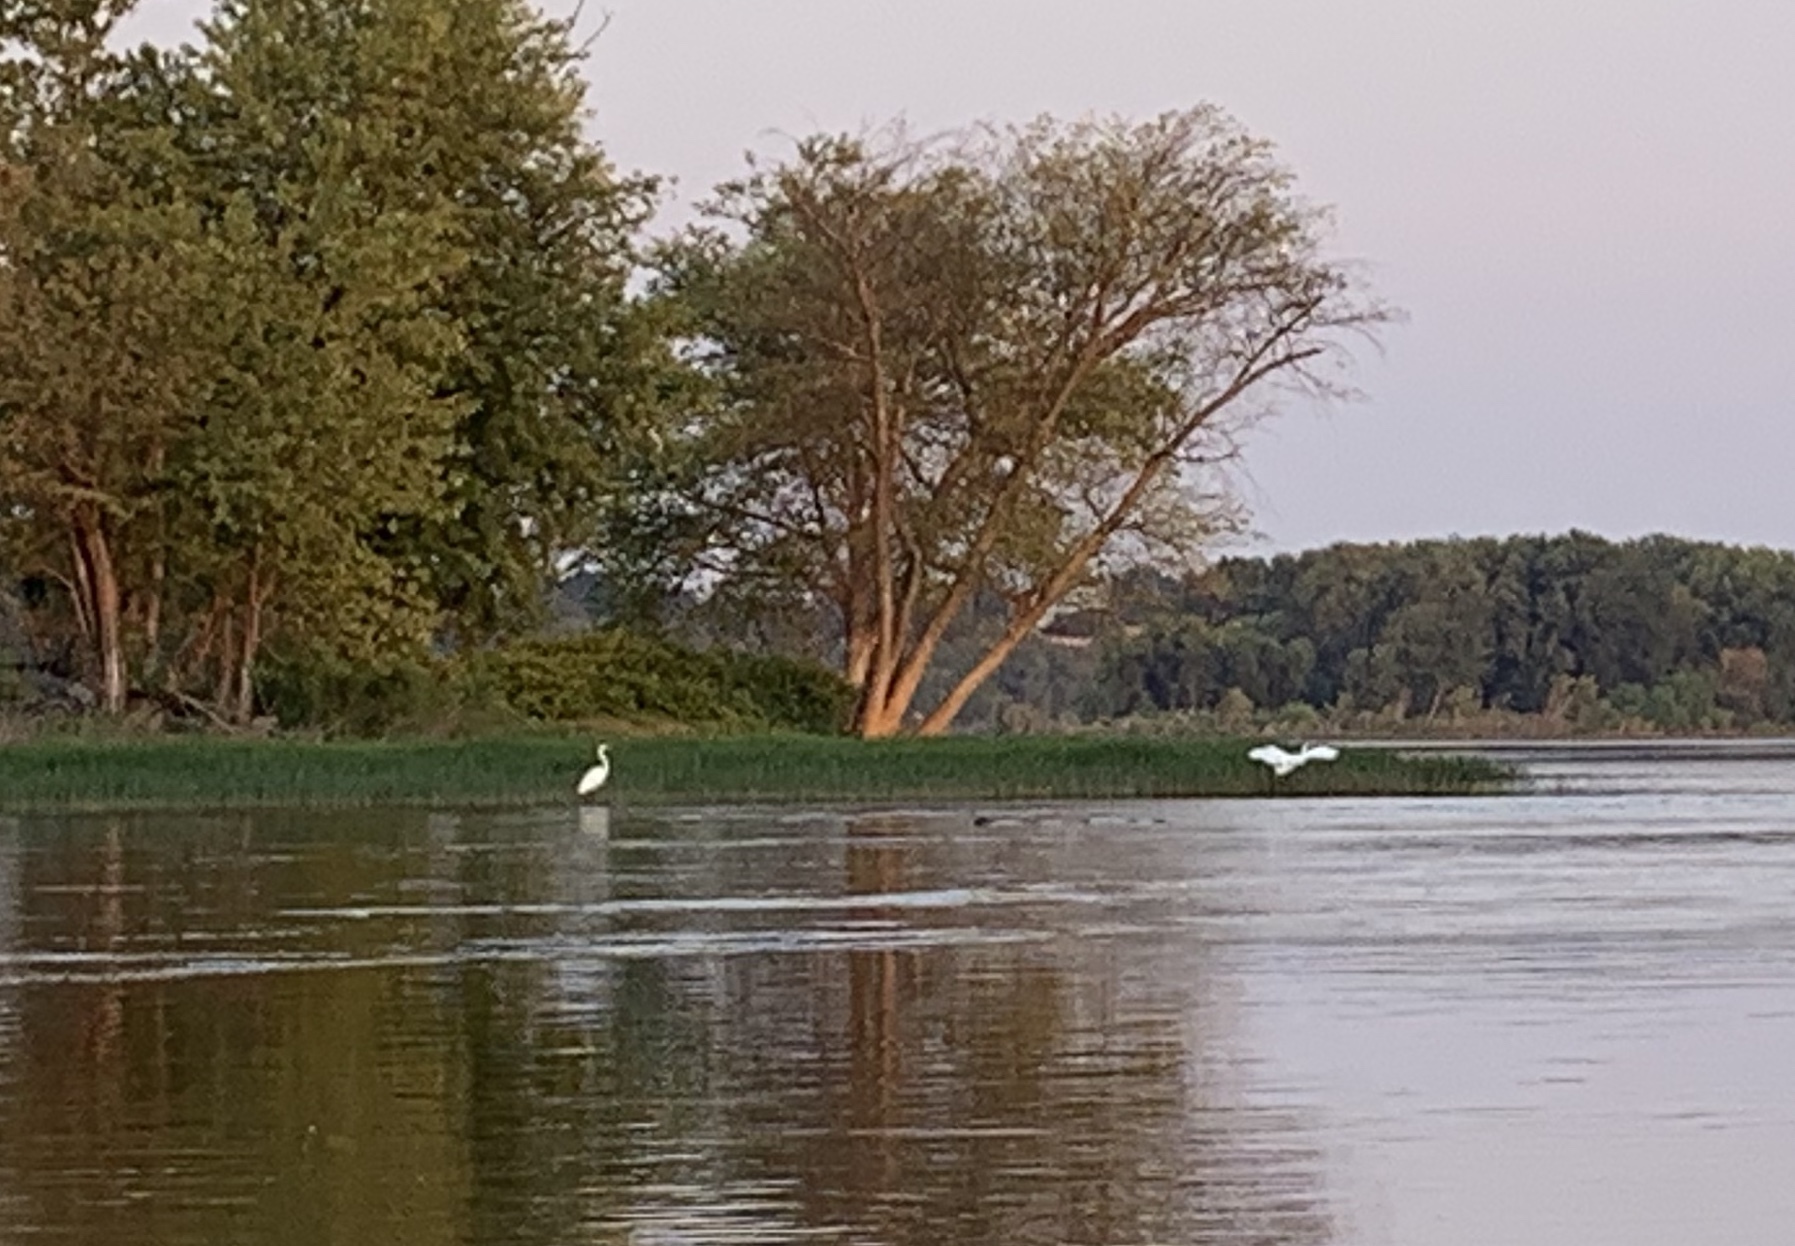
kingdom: Animalia
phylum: Chordata
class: Aves
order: Pelecaniformes
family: Ardeidae
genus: Ardea
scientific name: Ardea alba
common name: Great egret
